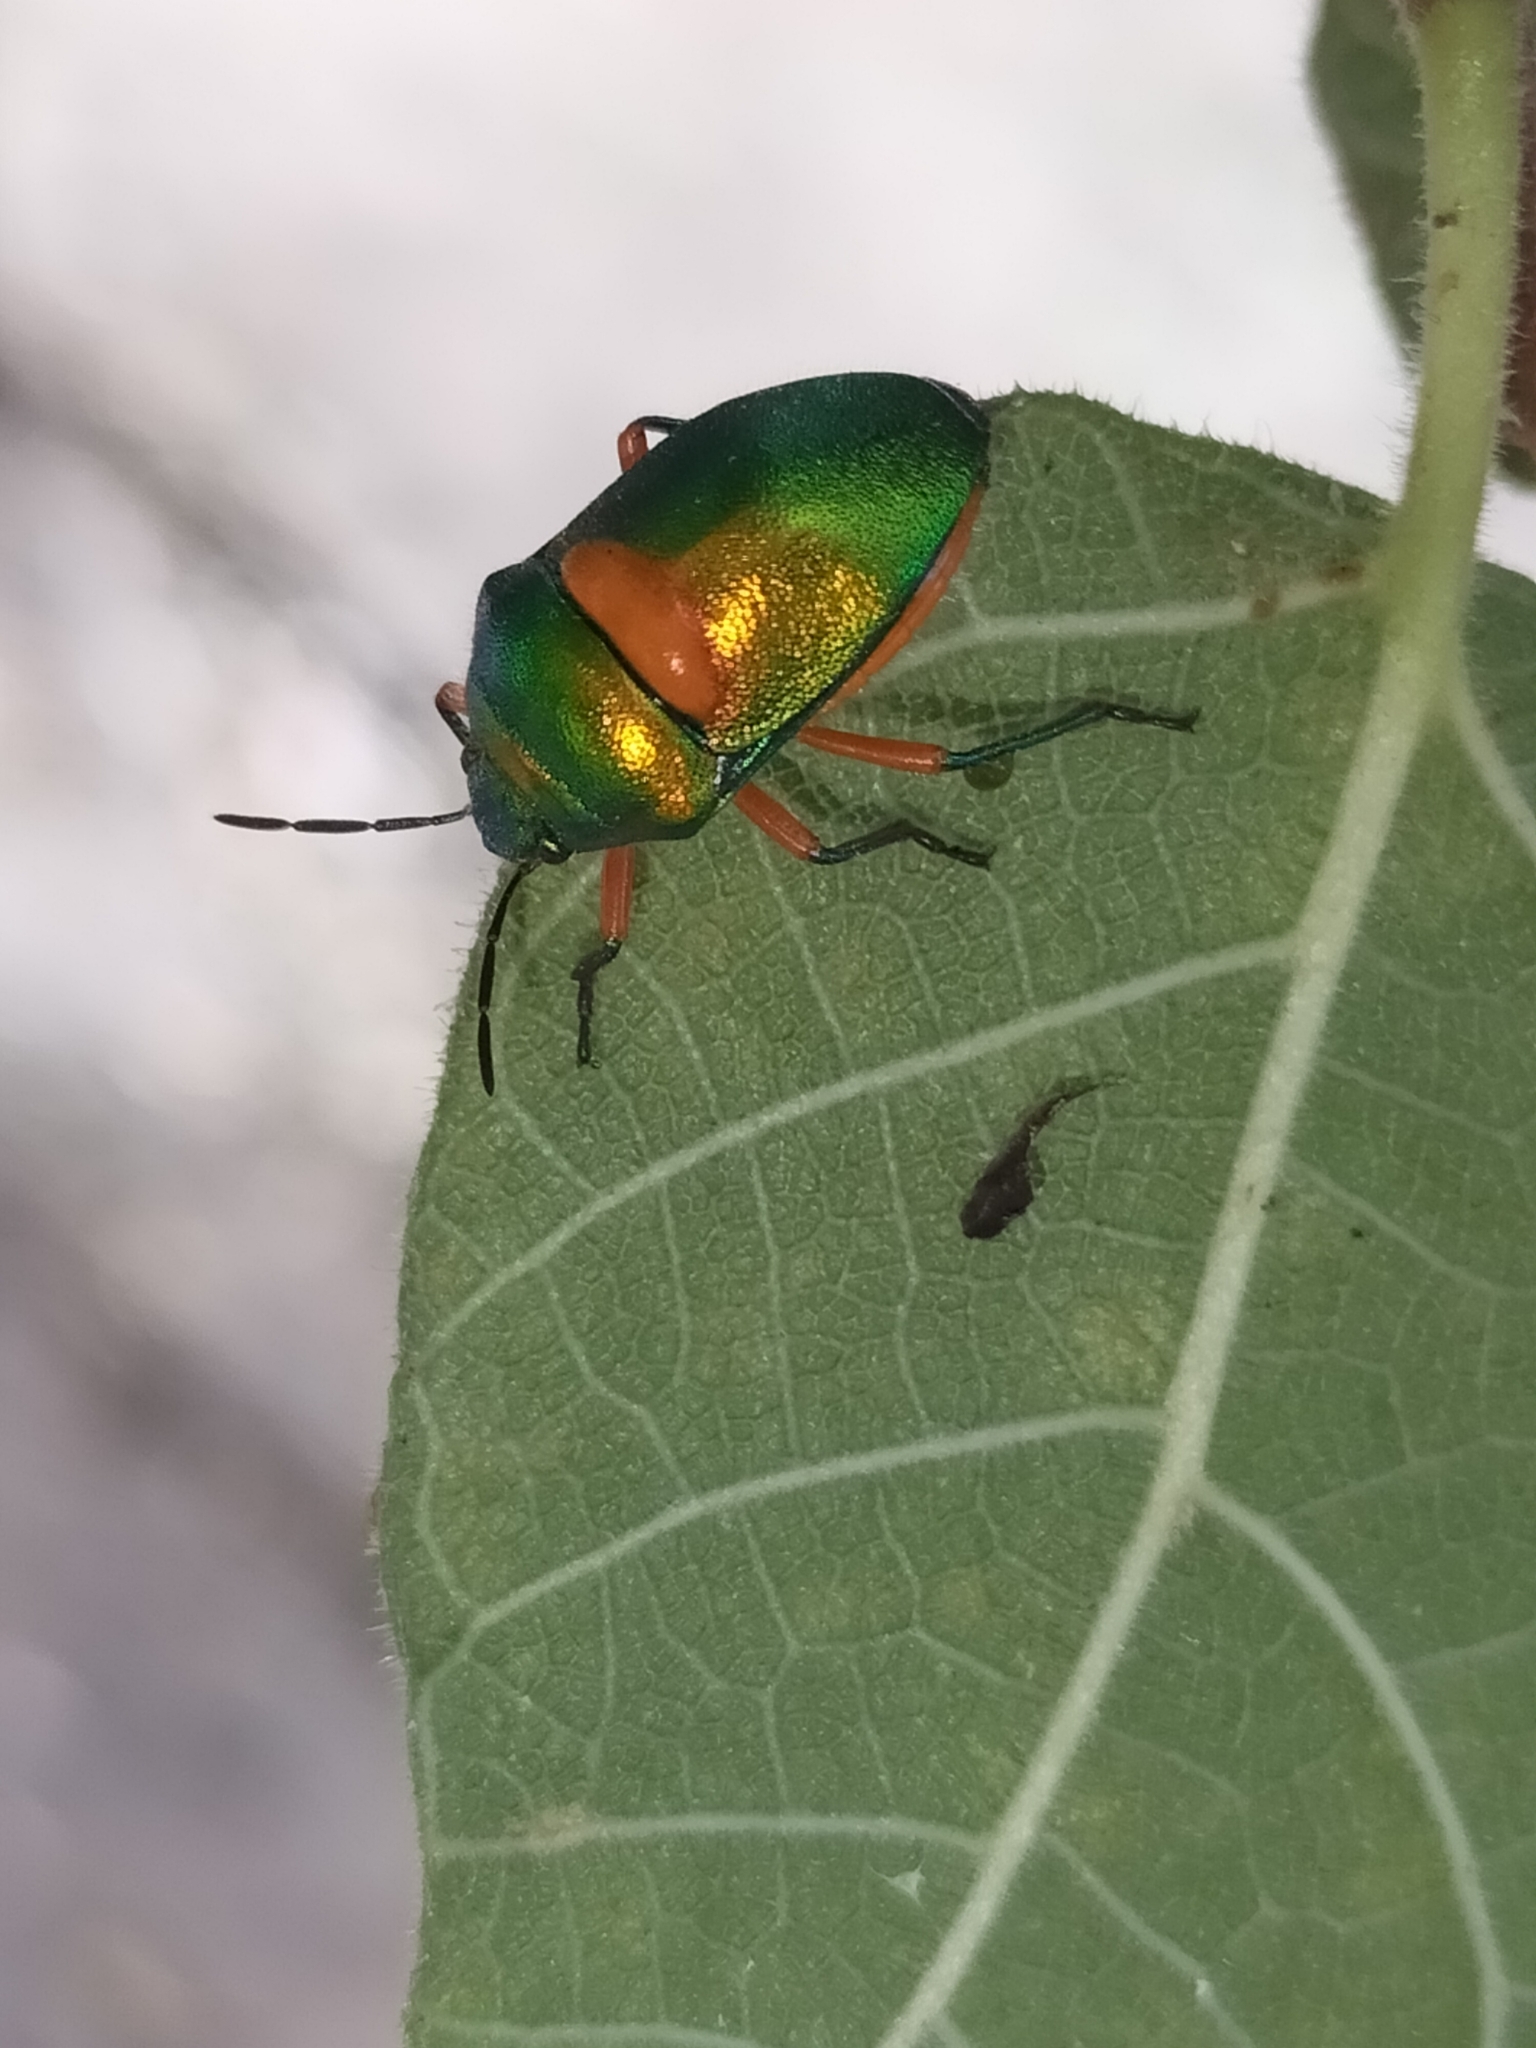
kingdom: Animalia
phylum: Arthropoda
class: Insecta
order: Hemiptera
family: Scutelleridae
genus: Lampromicra
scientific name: Lampromicra senator
